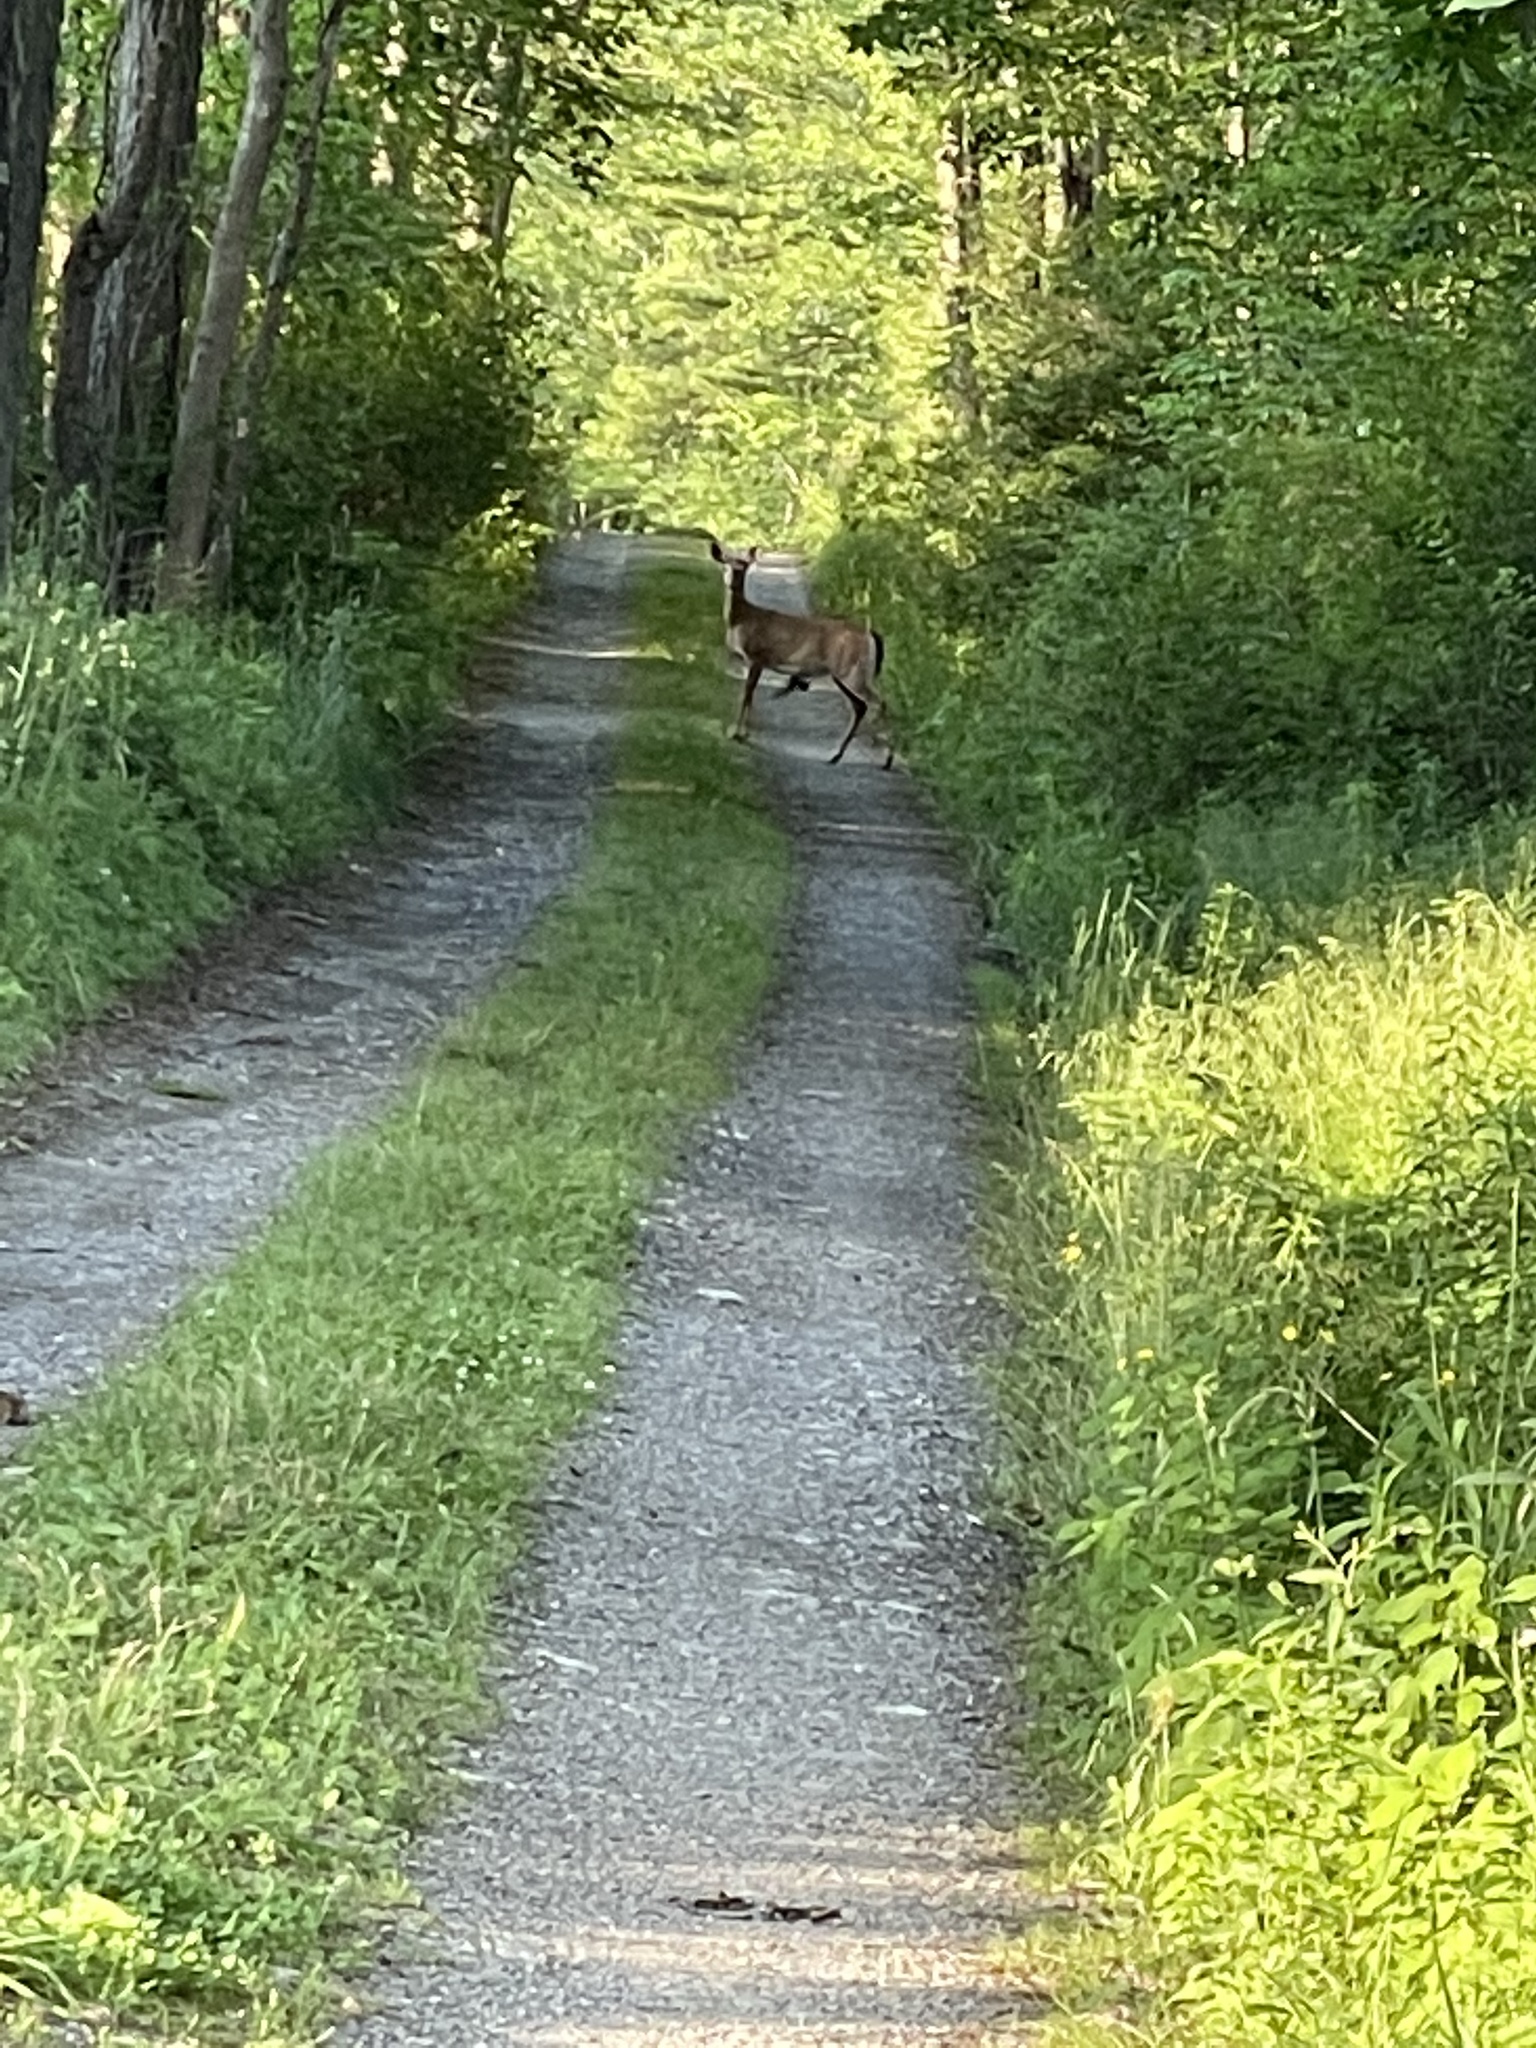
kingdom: Animalia
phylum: Chordata
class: Mammalia
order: Artiodactyla
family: Cervidae
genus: Odocoileus
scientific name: Odocoileus virginianus
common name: White-tailed deer
